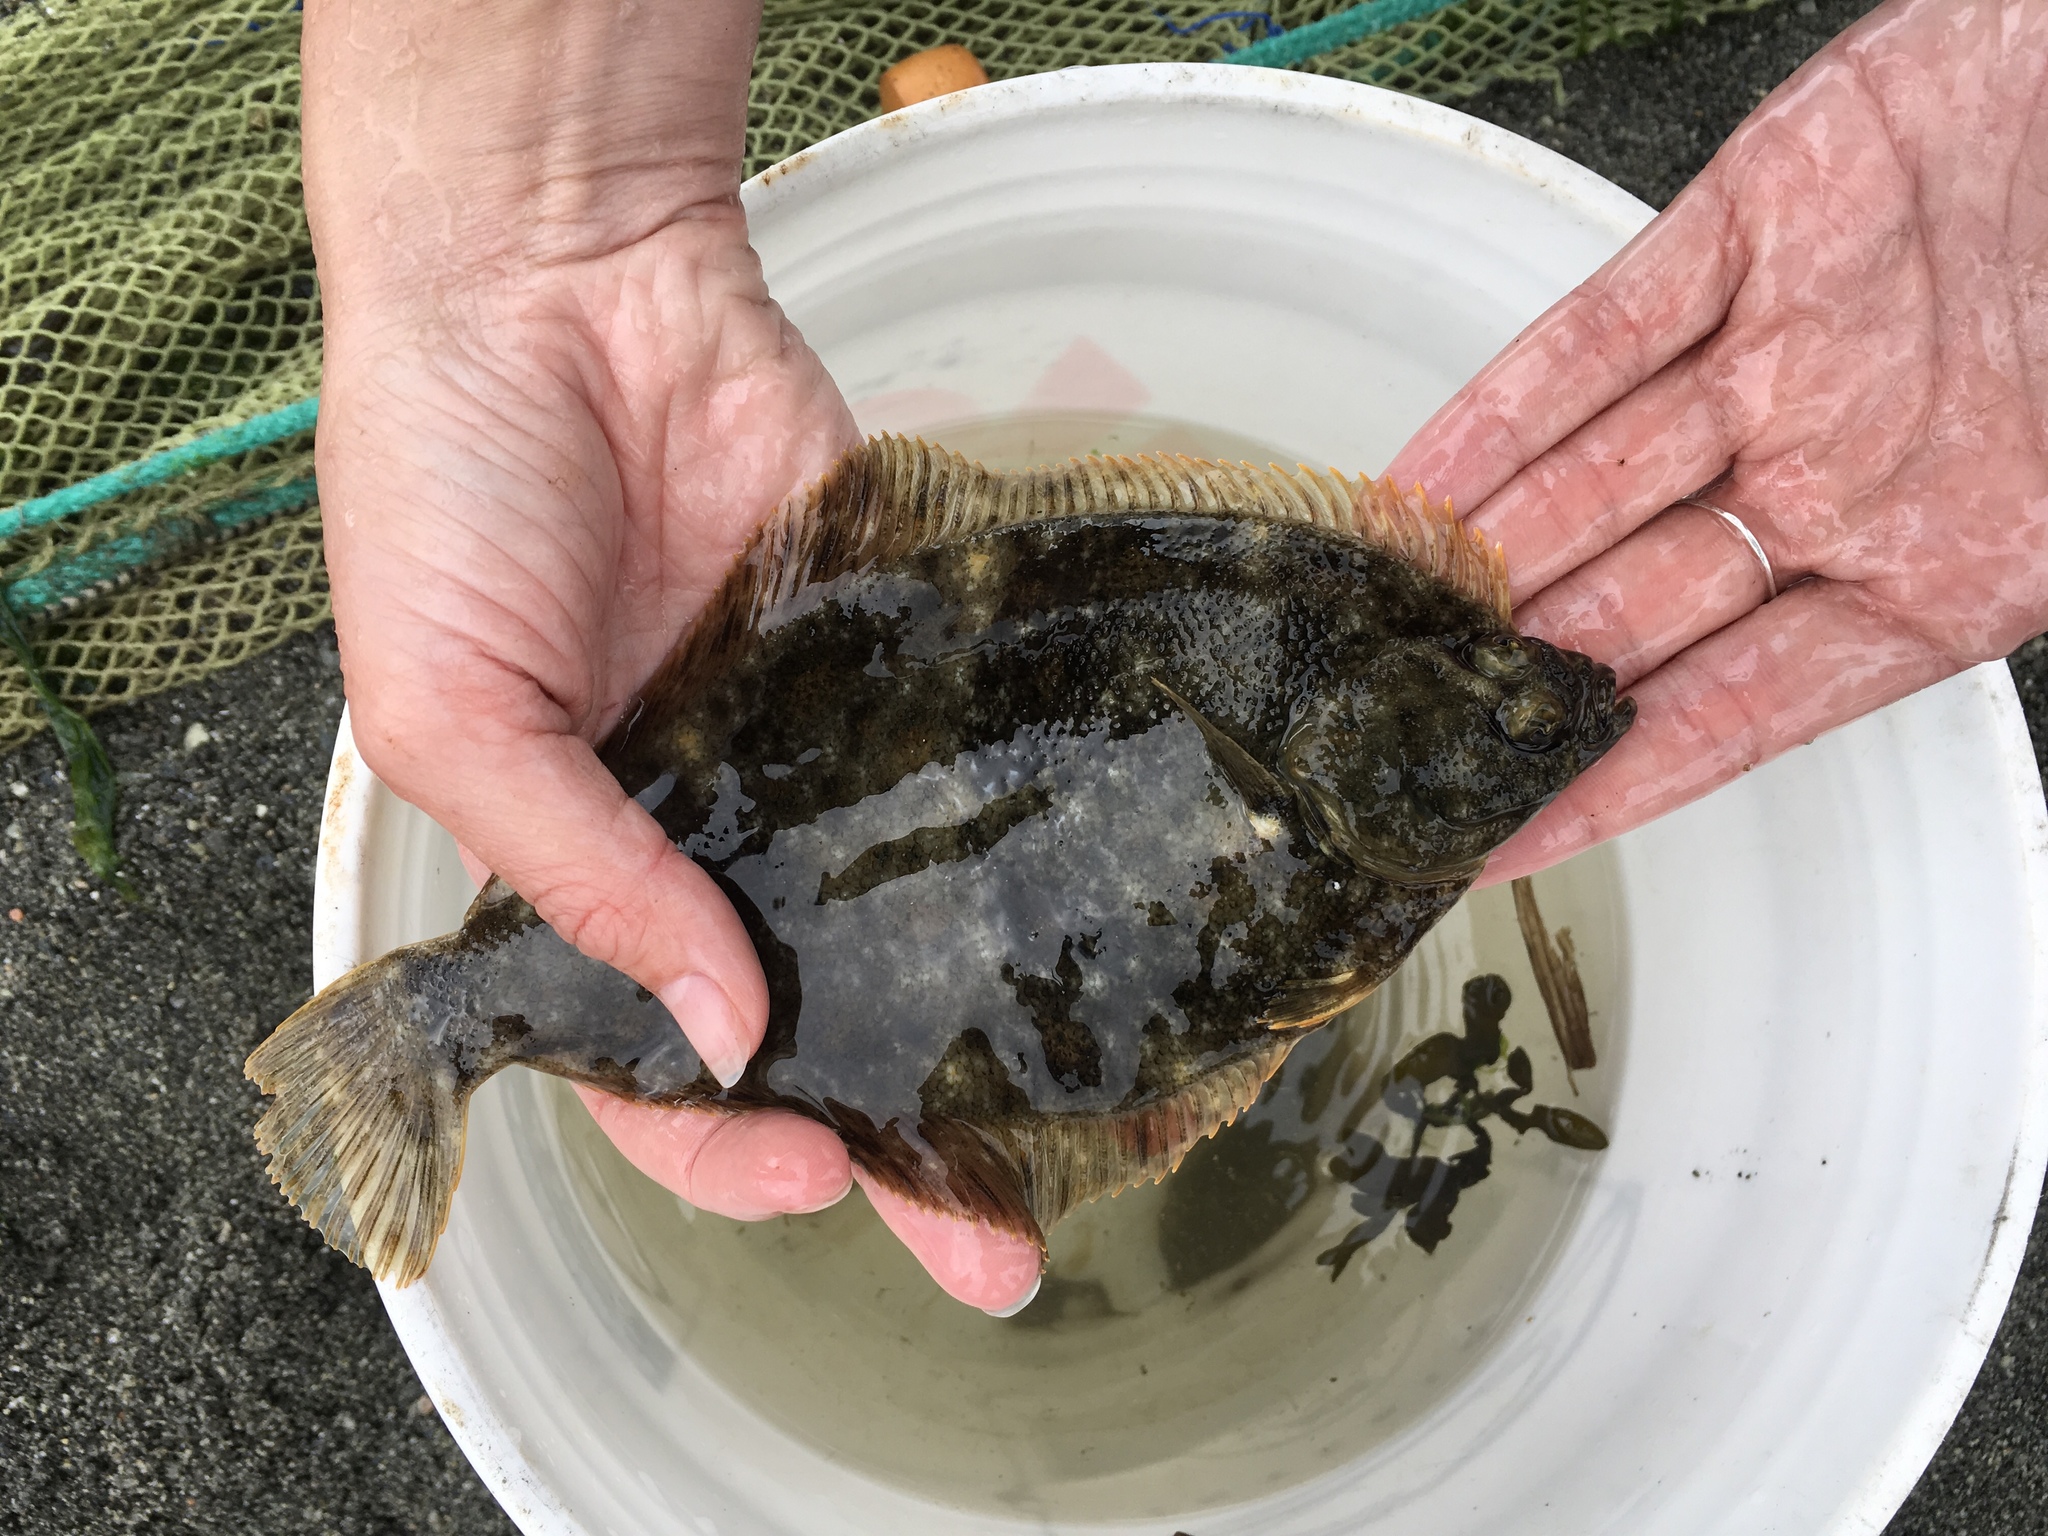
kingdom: Animalia
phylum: Chordata
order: Pleuronectiformes
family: Pleuronectidae
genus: Lepidopsetta
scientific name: Lepidopsetta bilineata
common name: Southern rock sole
